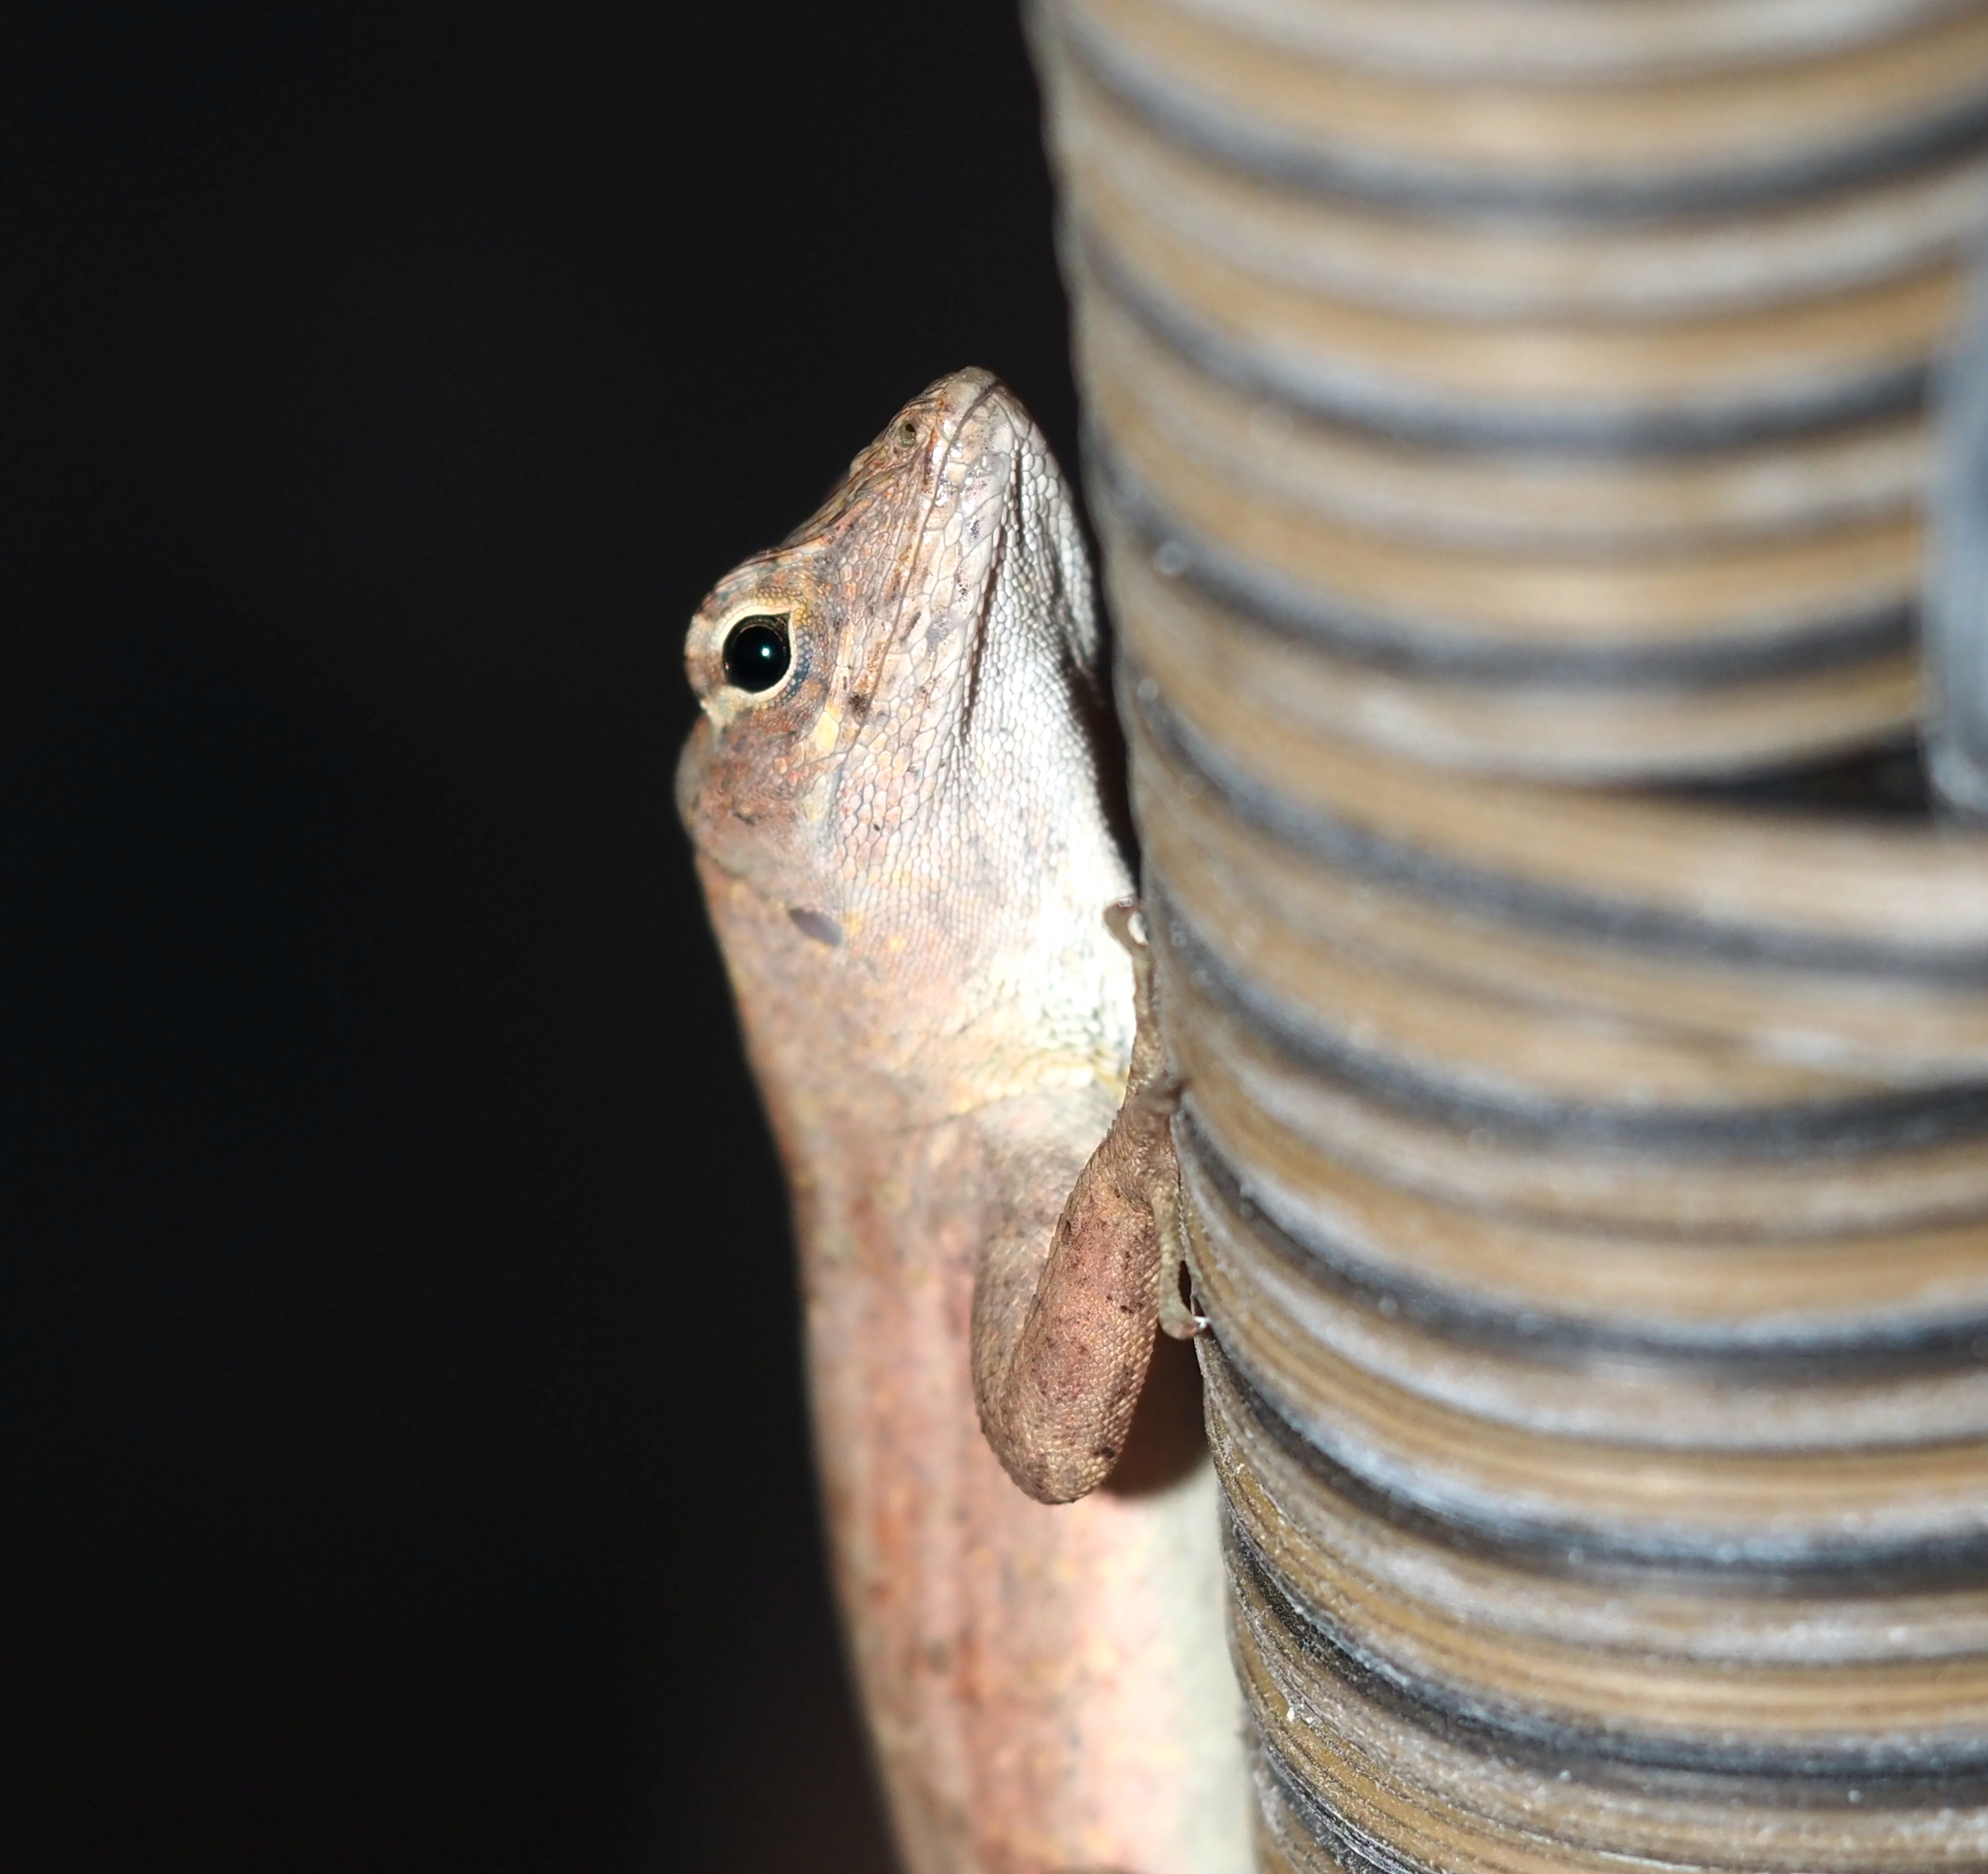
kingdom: Animalia
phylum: Chordata
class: Squamata
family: Dactyloidae
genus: Anolis
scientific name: Anolis sagrei
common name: Brown anole
